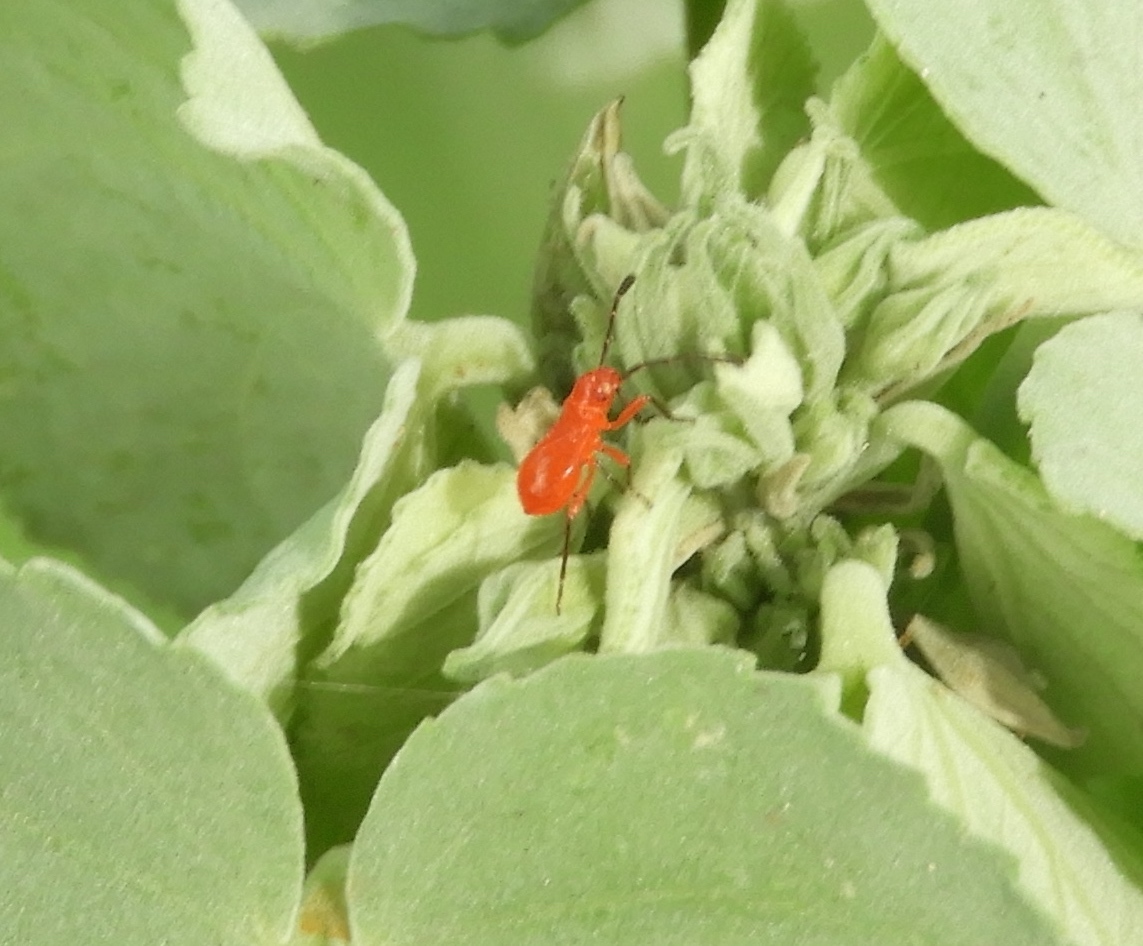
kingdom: Animalia
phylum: Arthropoda
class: Insecta
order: Hemiptera
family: Pyrrhocoridae
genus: Dysdercus
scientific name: Dysdercus
